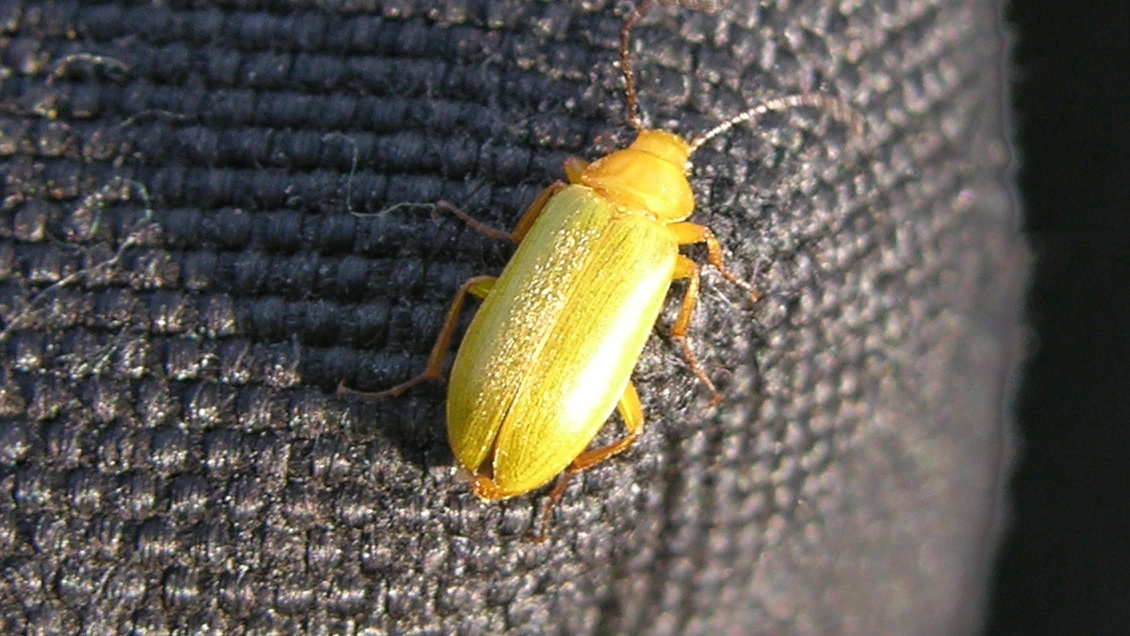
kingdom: Animalia
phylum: Arthropoda
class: Insecta
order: Coleoptera
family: Tenebrionidae
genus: Cteniopus
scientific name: Cteniopus sulphureus
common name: Sulphur beetle
